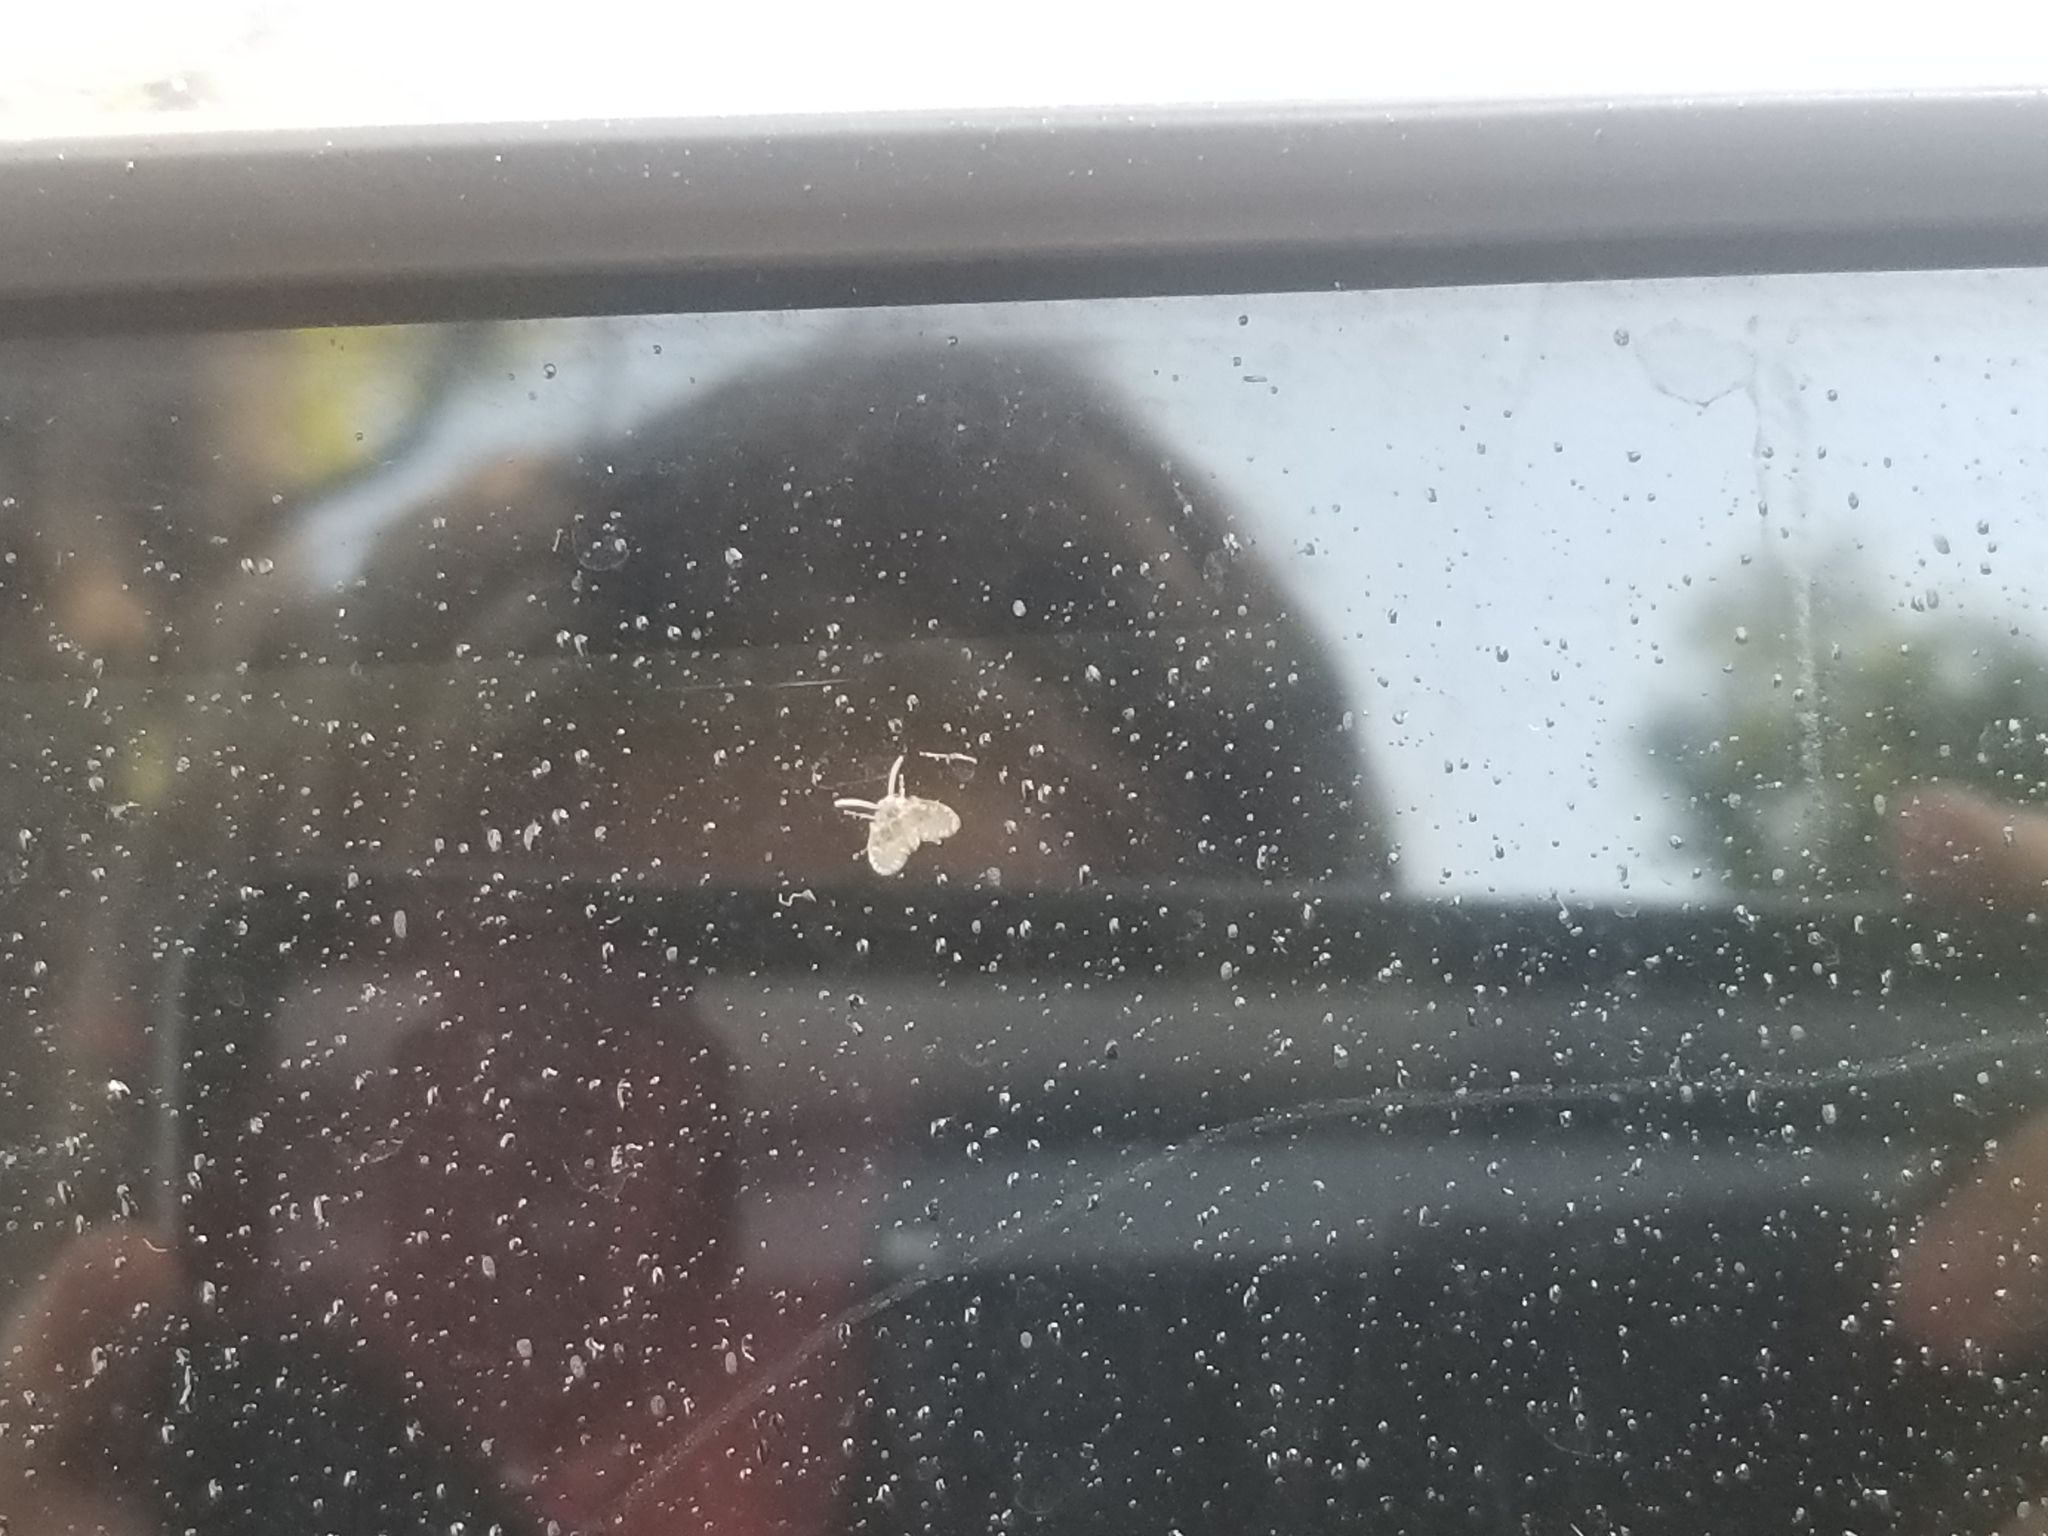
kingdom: Animalia
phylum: Arthropoda
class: Insecta
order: Diptera
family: Psychodidae
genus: Clogmia
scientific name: Clogmia albipunctatus
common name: White-spotted moth fly
